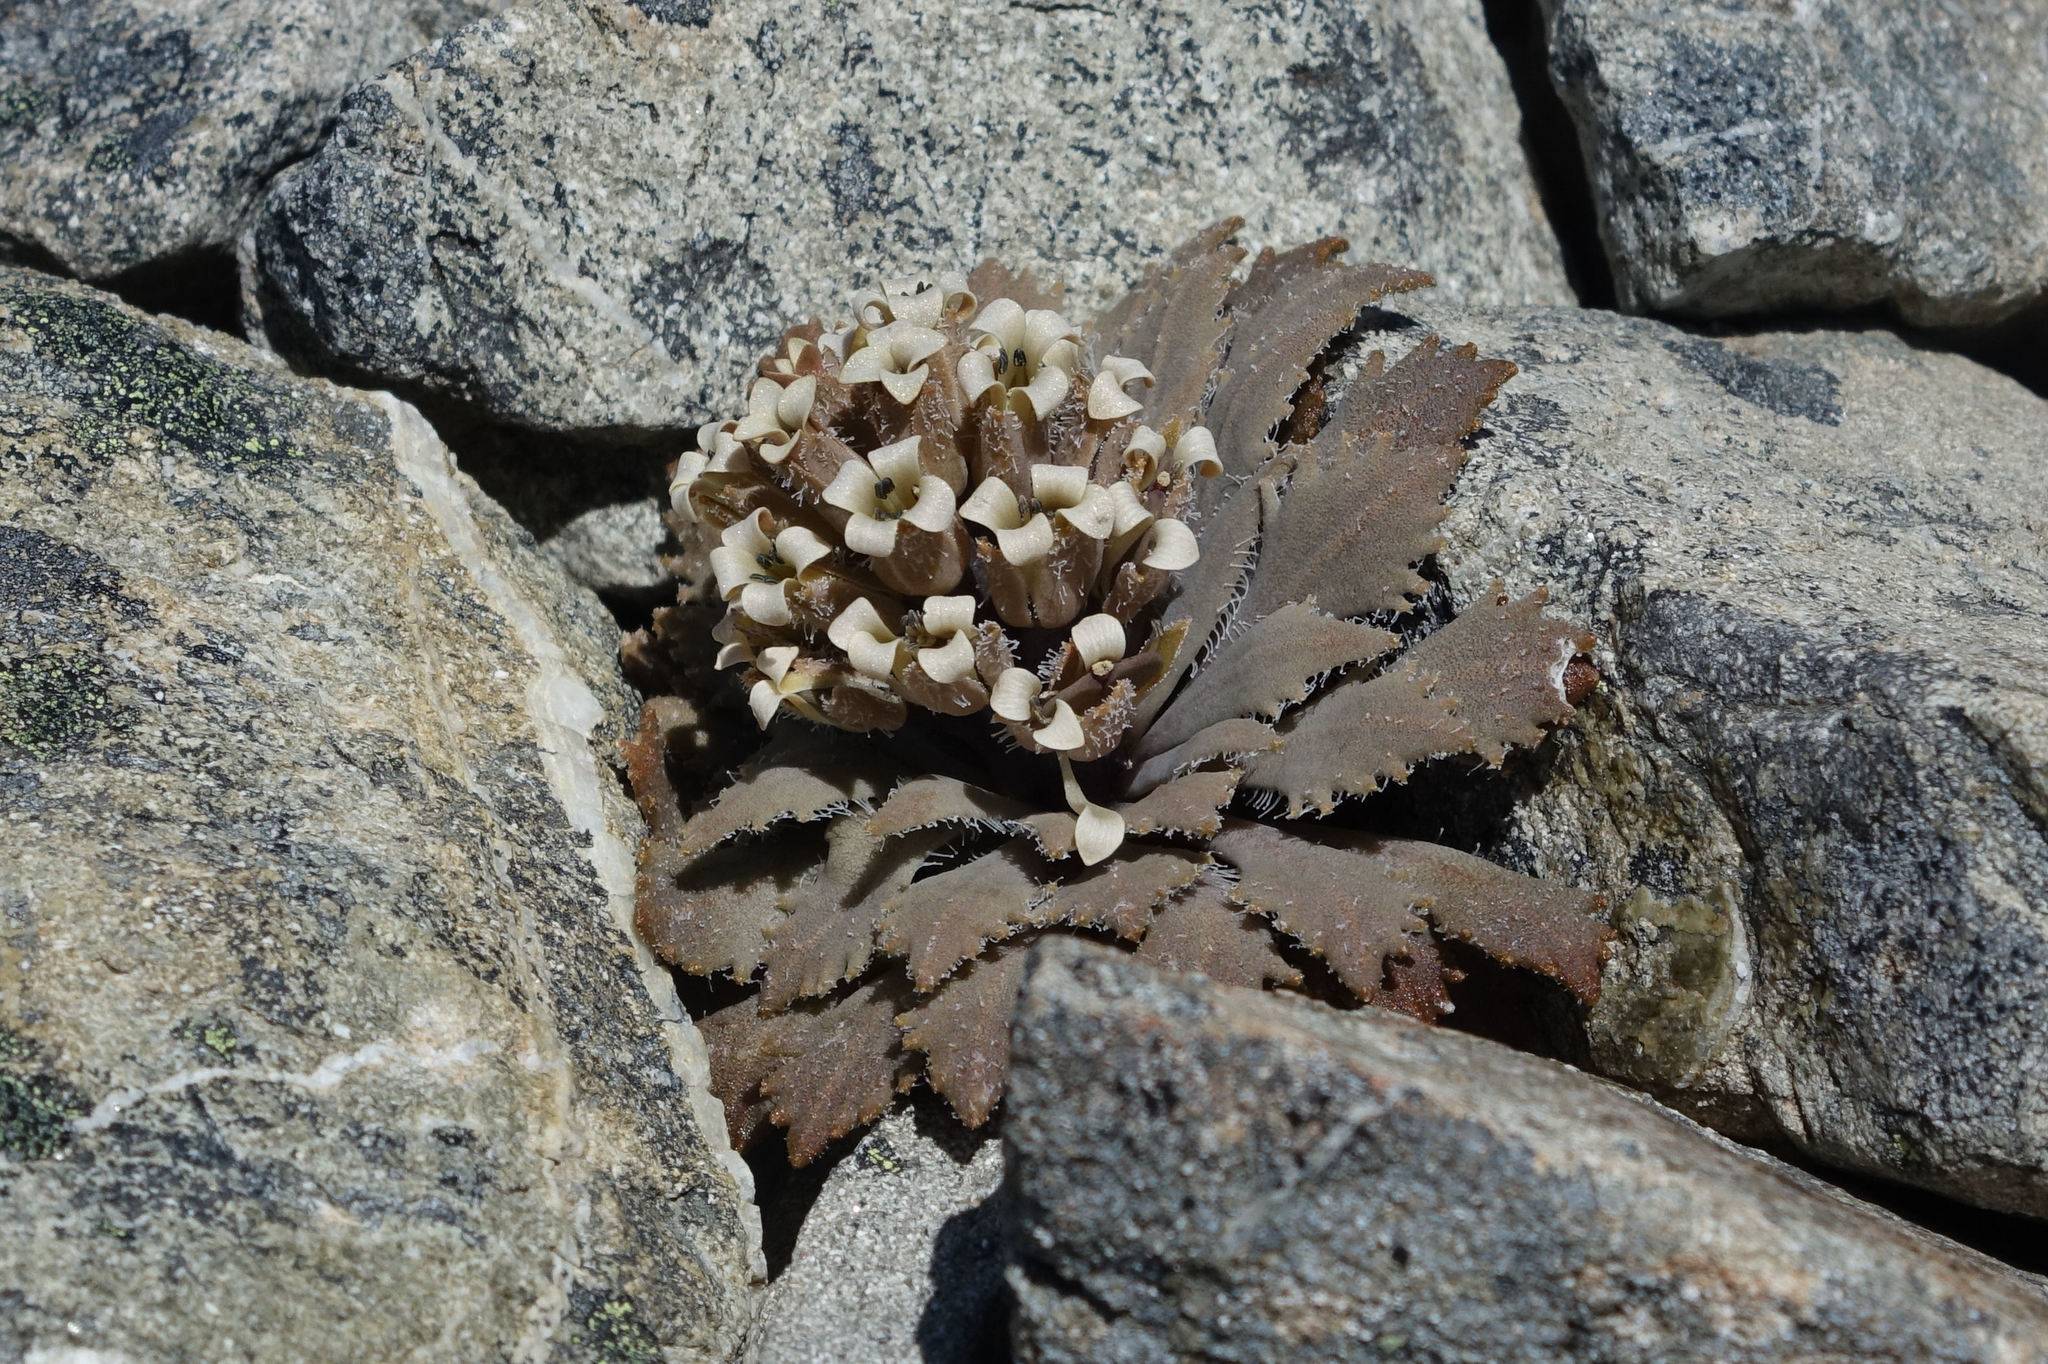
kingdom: Plantae
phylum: Tracheophyta
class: Magnoliopsida
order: Brassicales
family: Brassicaceae
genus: Notothlaspi
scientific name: Notothlaspi rosulatum
